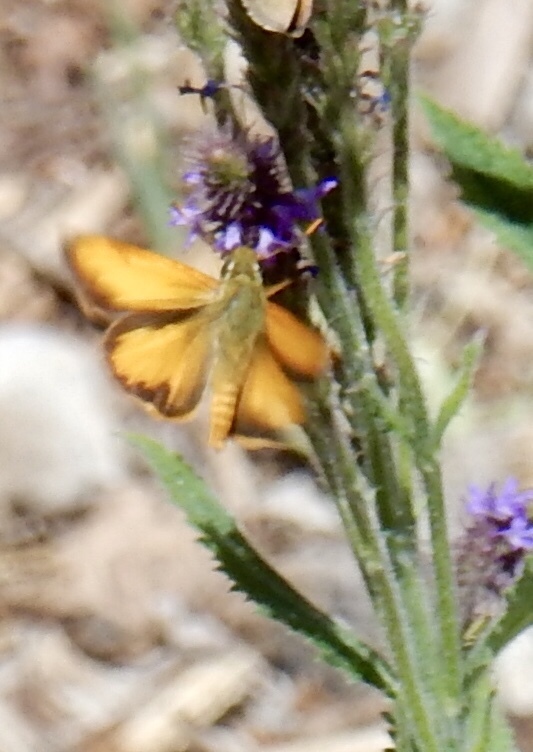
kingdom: Animalia
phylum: Arthropoda
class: Insecta
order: Lepidoptera
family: Hesperiidae
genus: Lon
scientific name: Lon taxiles
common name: Taxiles skipper
